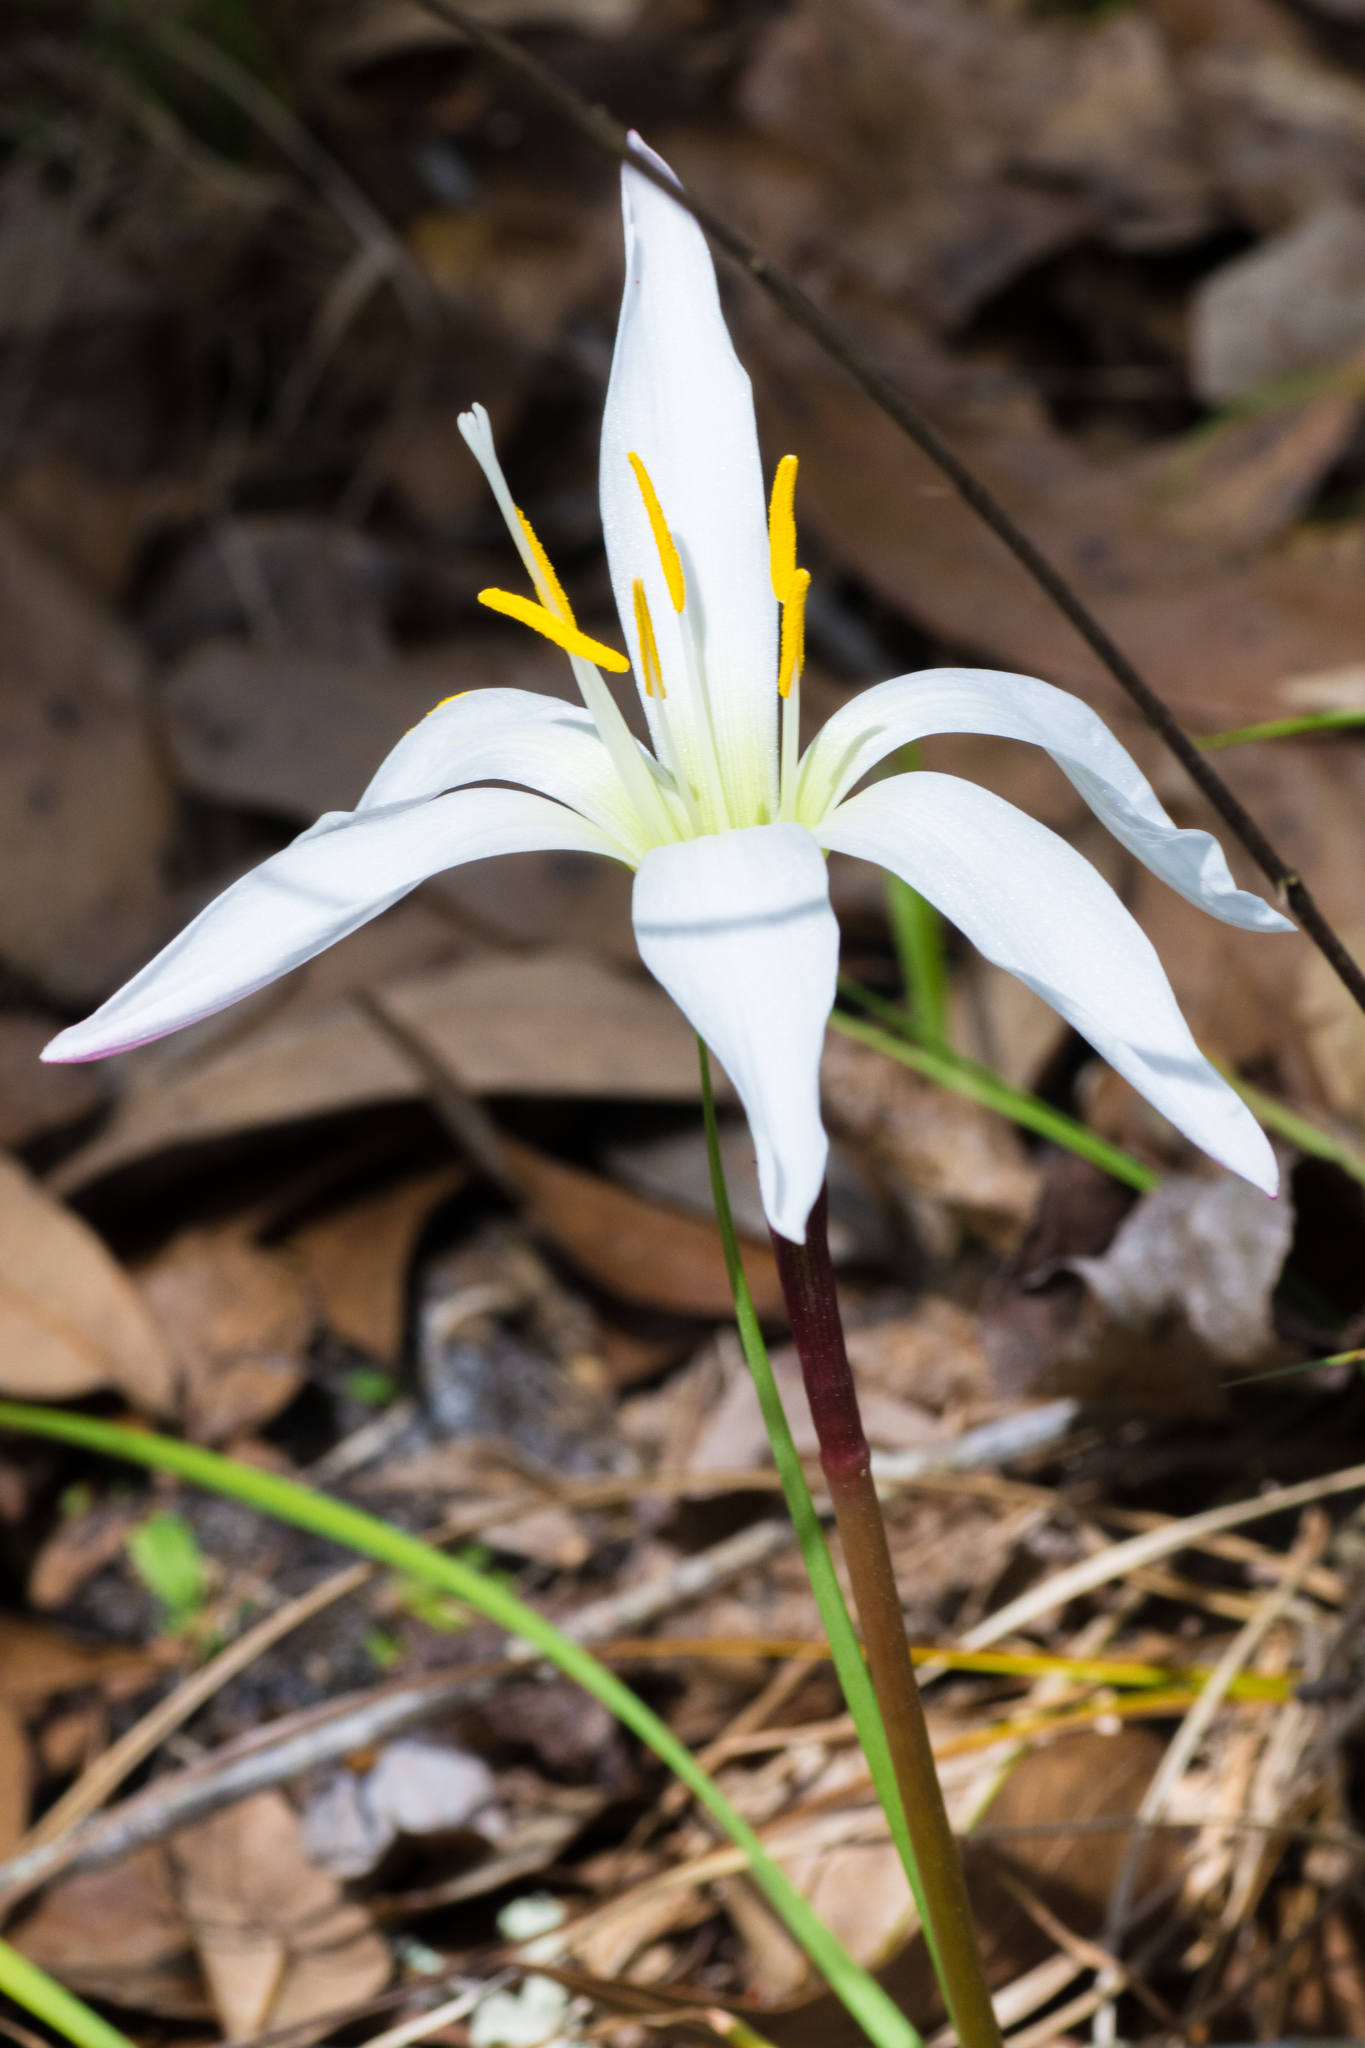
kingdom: Plantae
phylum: Tracheophyta
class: Liliopsida
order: Asparagales
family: Amaryllidaceae
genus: Zephyranthes
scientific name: Zephyranthes atamasco
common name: Atamasco lily
